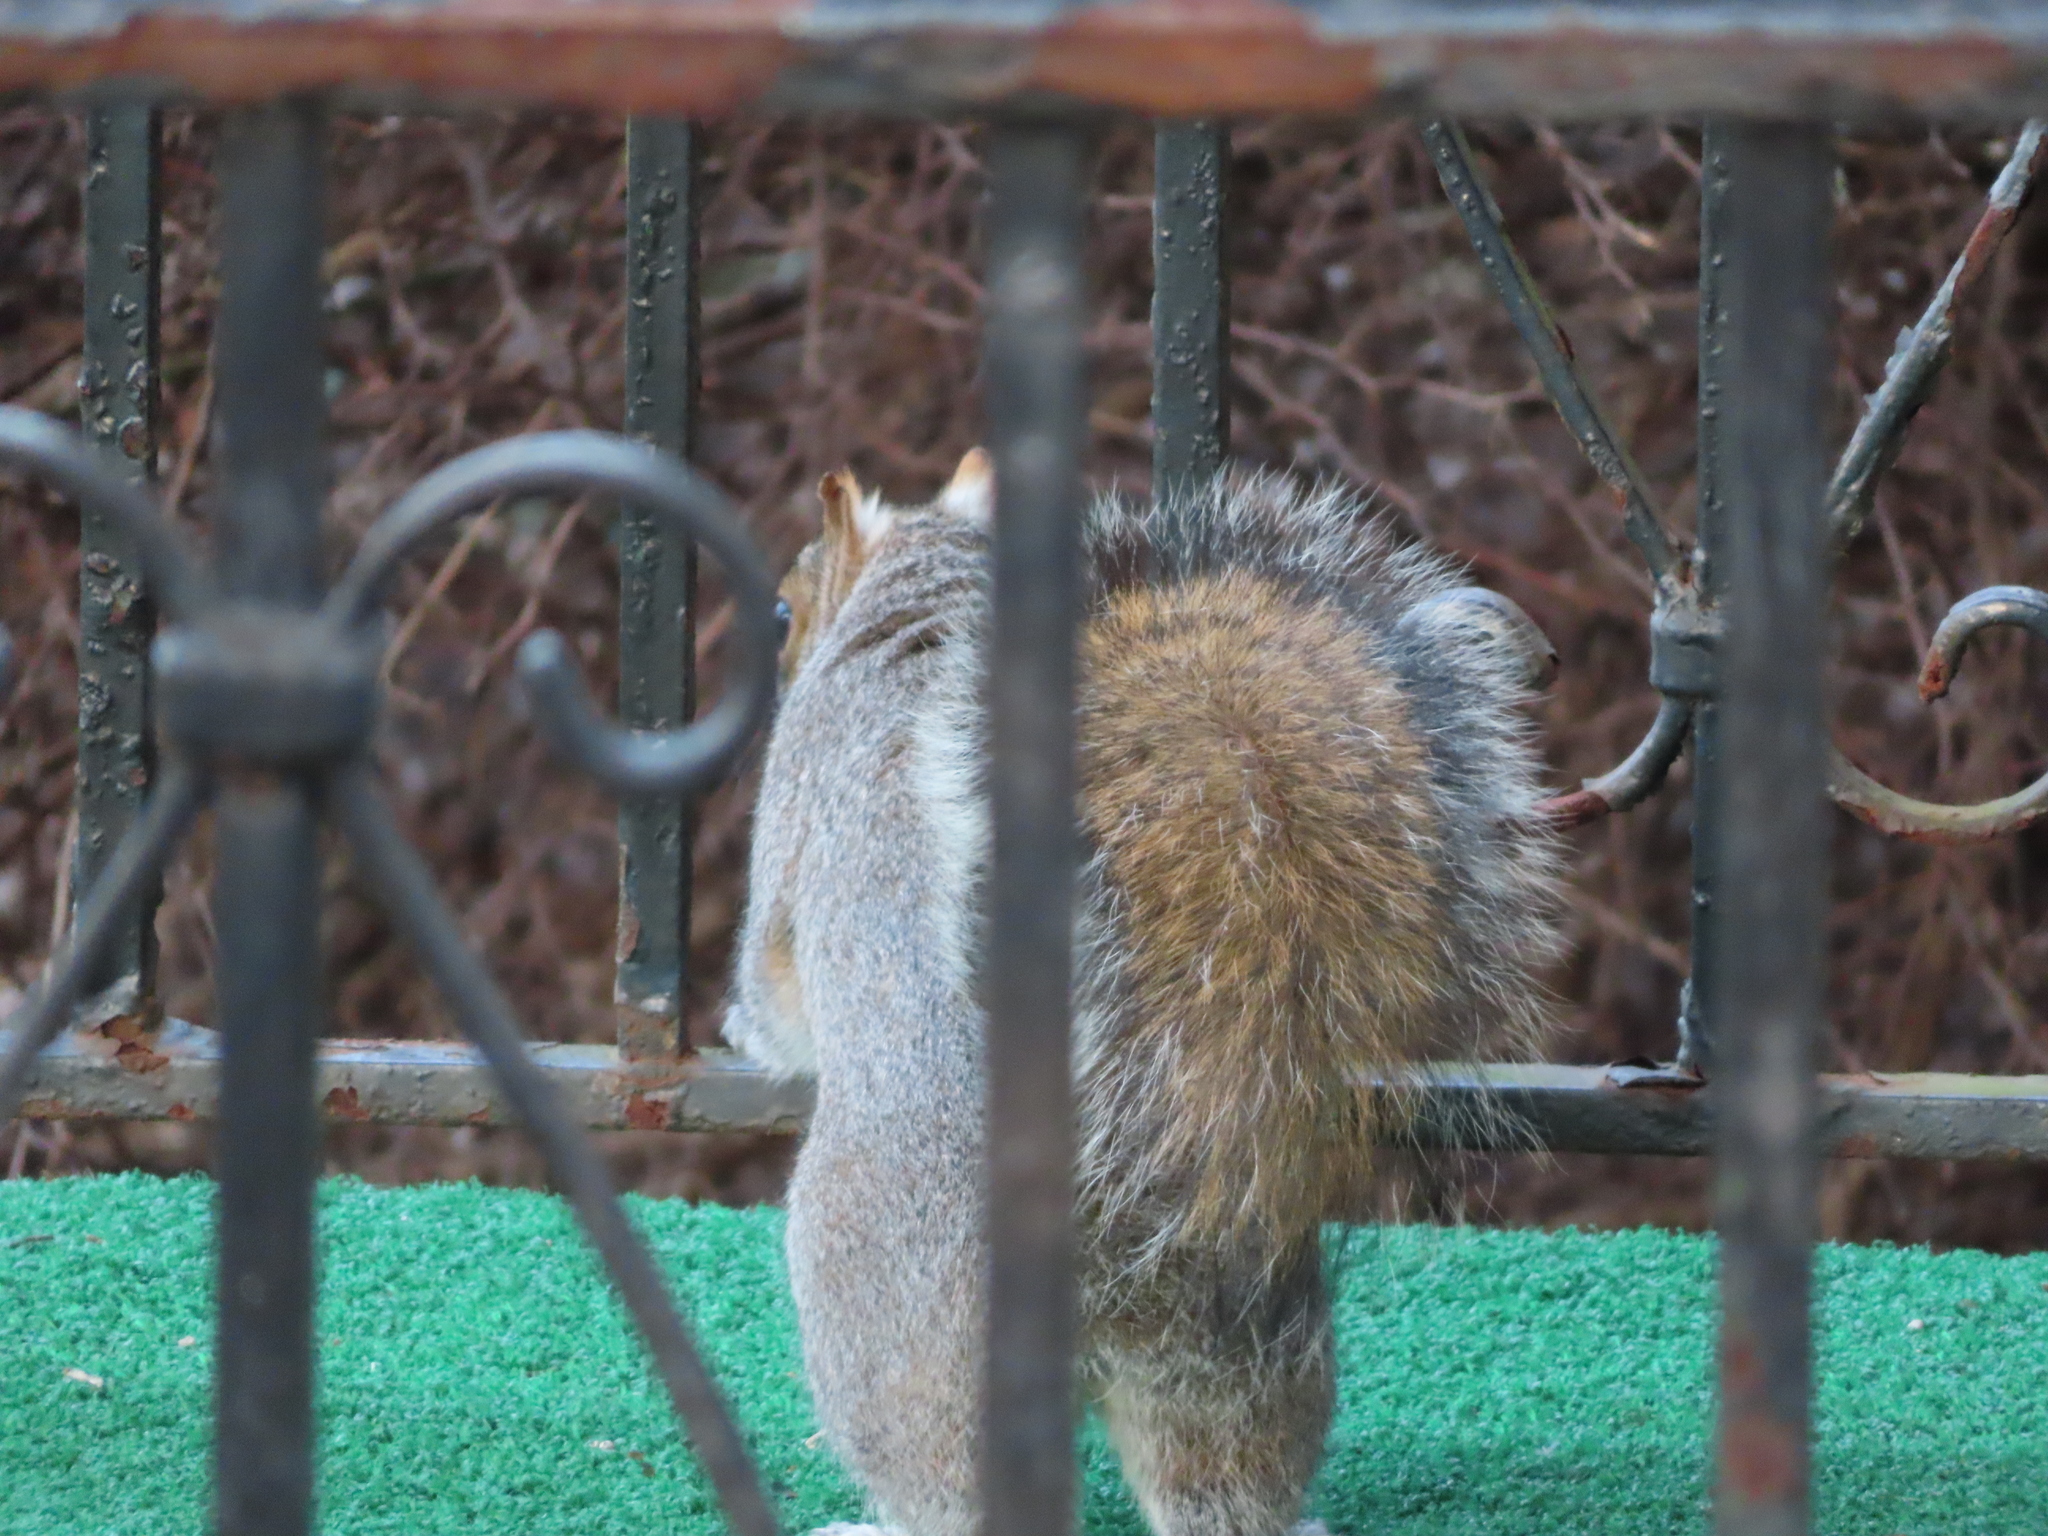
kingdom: Animalia
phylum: Chordata
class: Mammalia
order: Rodentia
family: Sciuridae
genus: Sciurus
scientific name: Sciurus carolinensis
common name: Eastern gray squirrel
